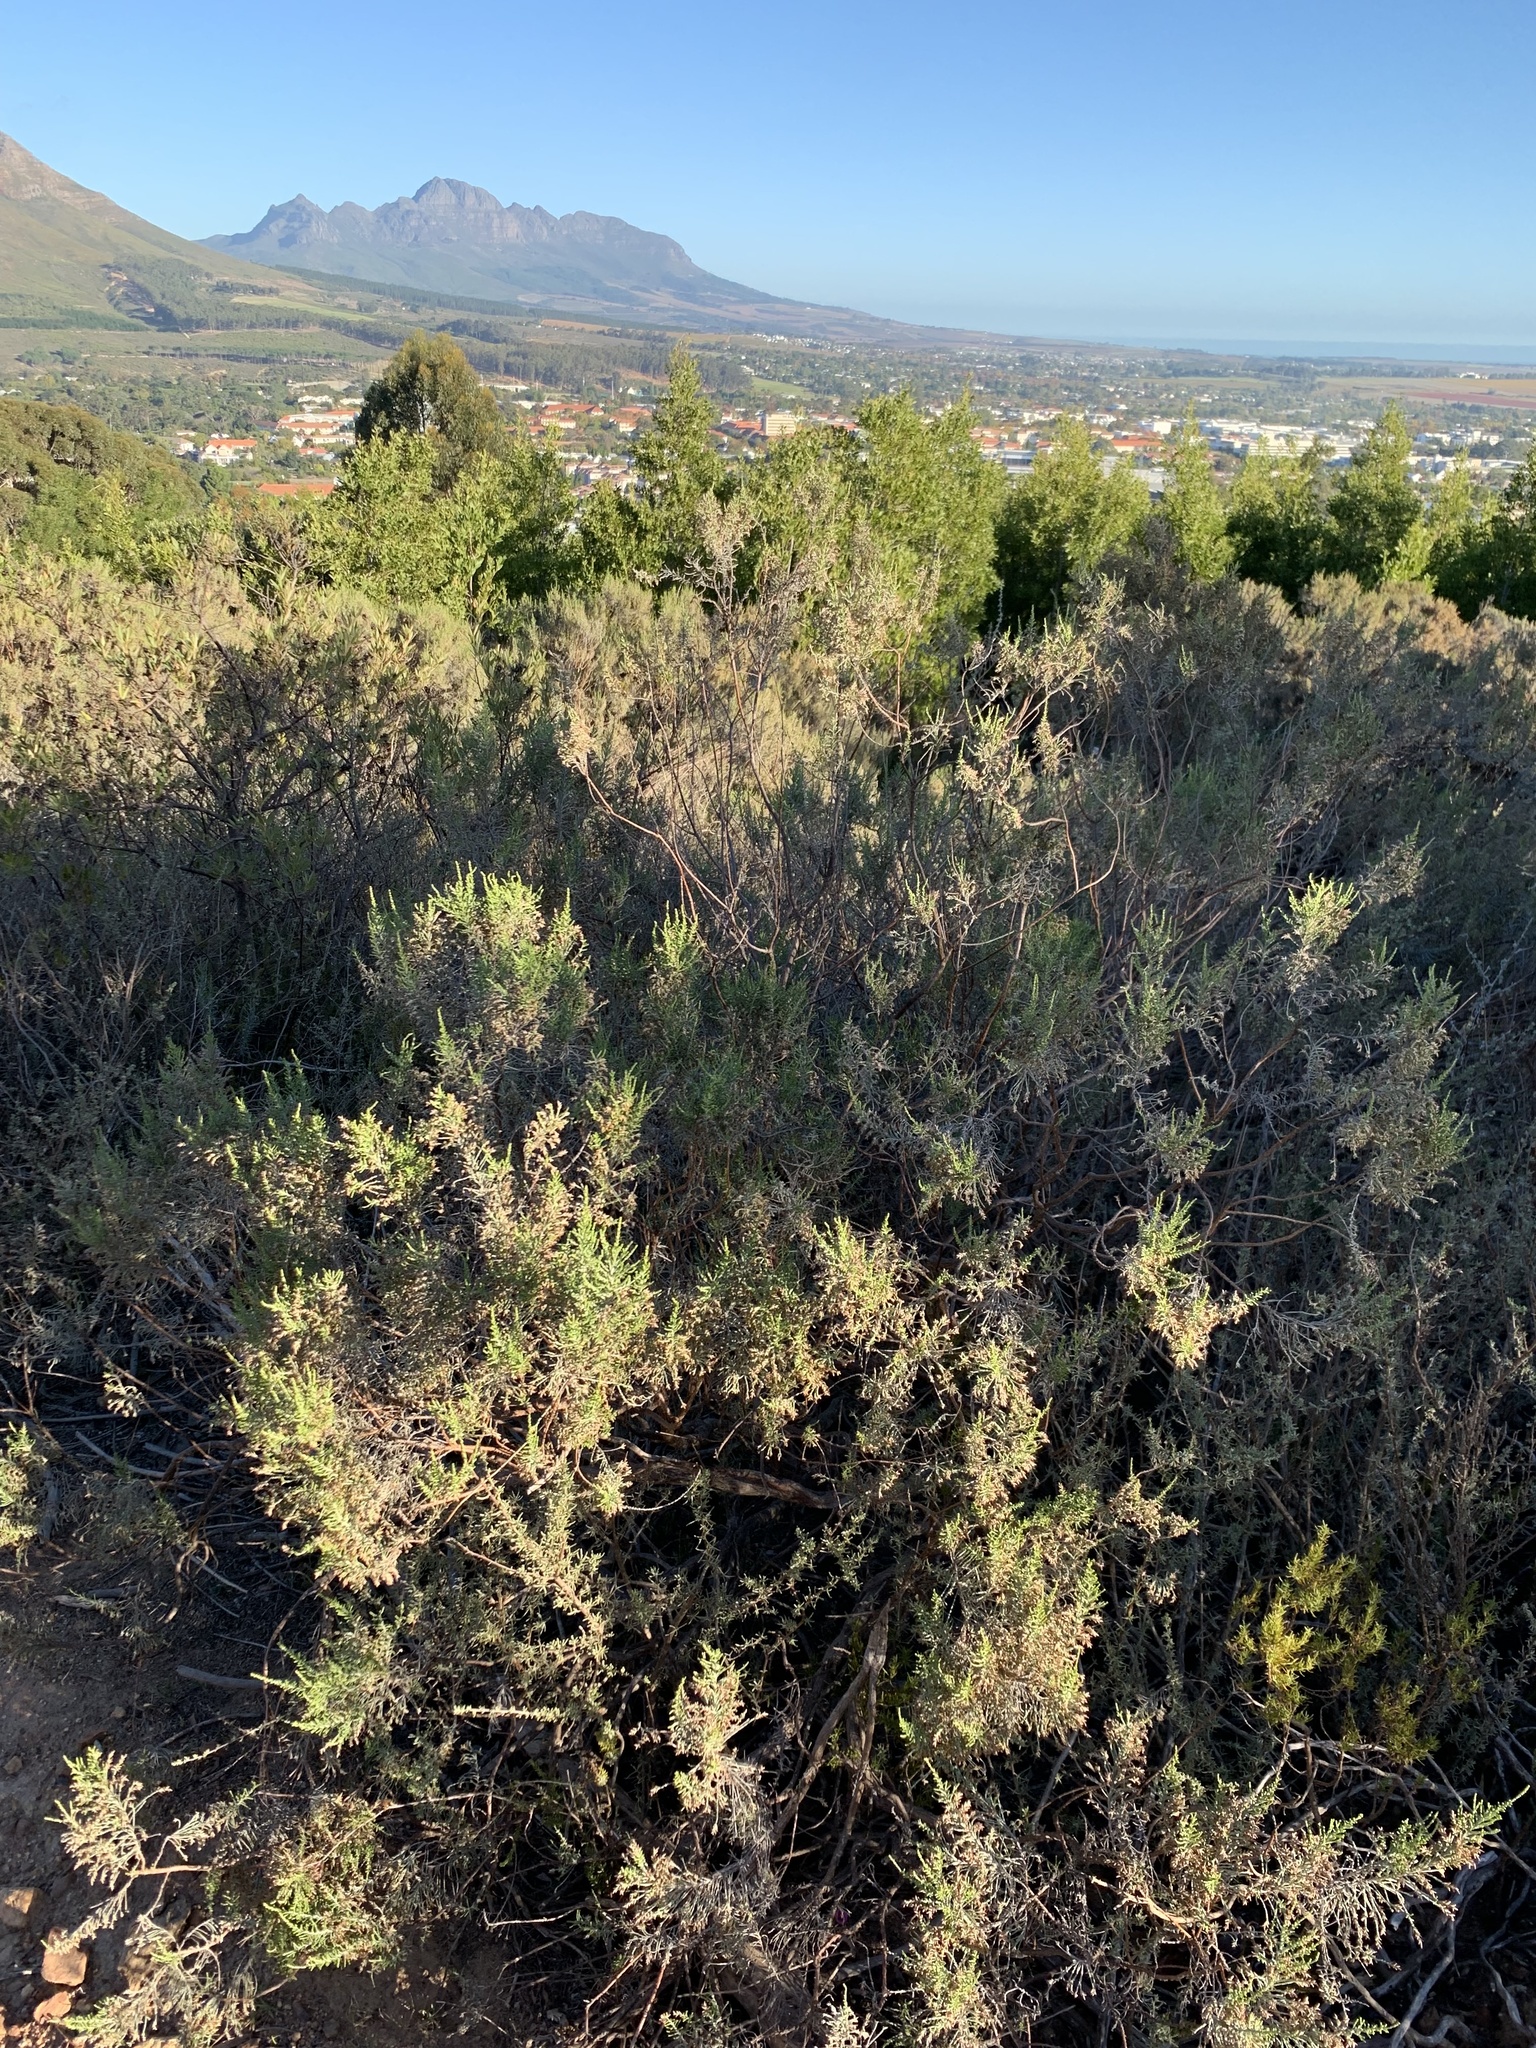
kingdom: Plantae
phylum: Tracheophyta
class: Magnoliopsida
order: Asterales
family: Asteraceae
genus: Dicerothamnus
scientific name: Dicerothamnus rhinocerotis
